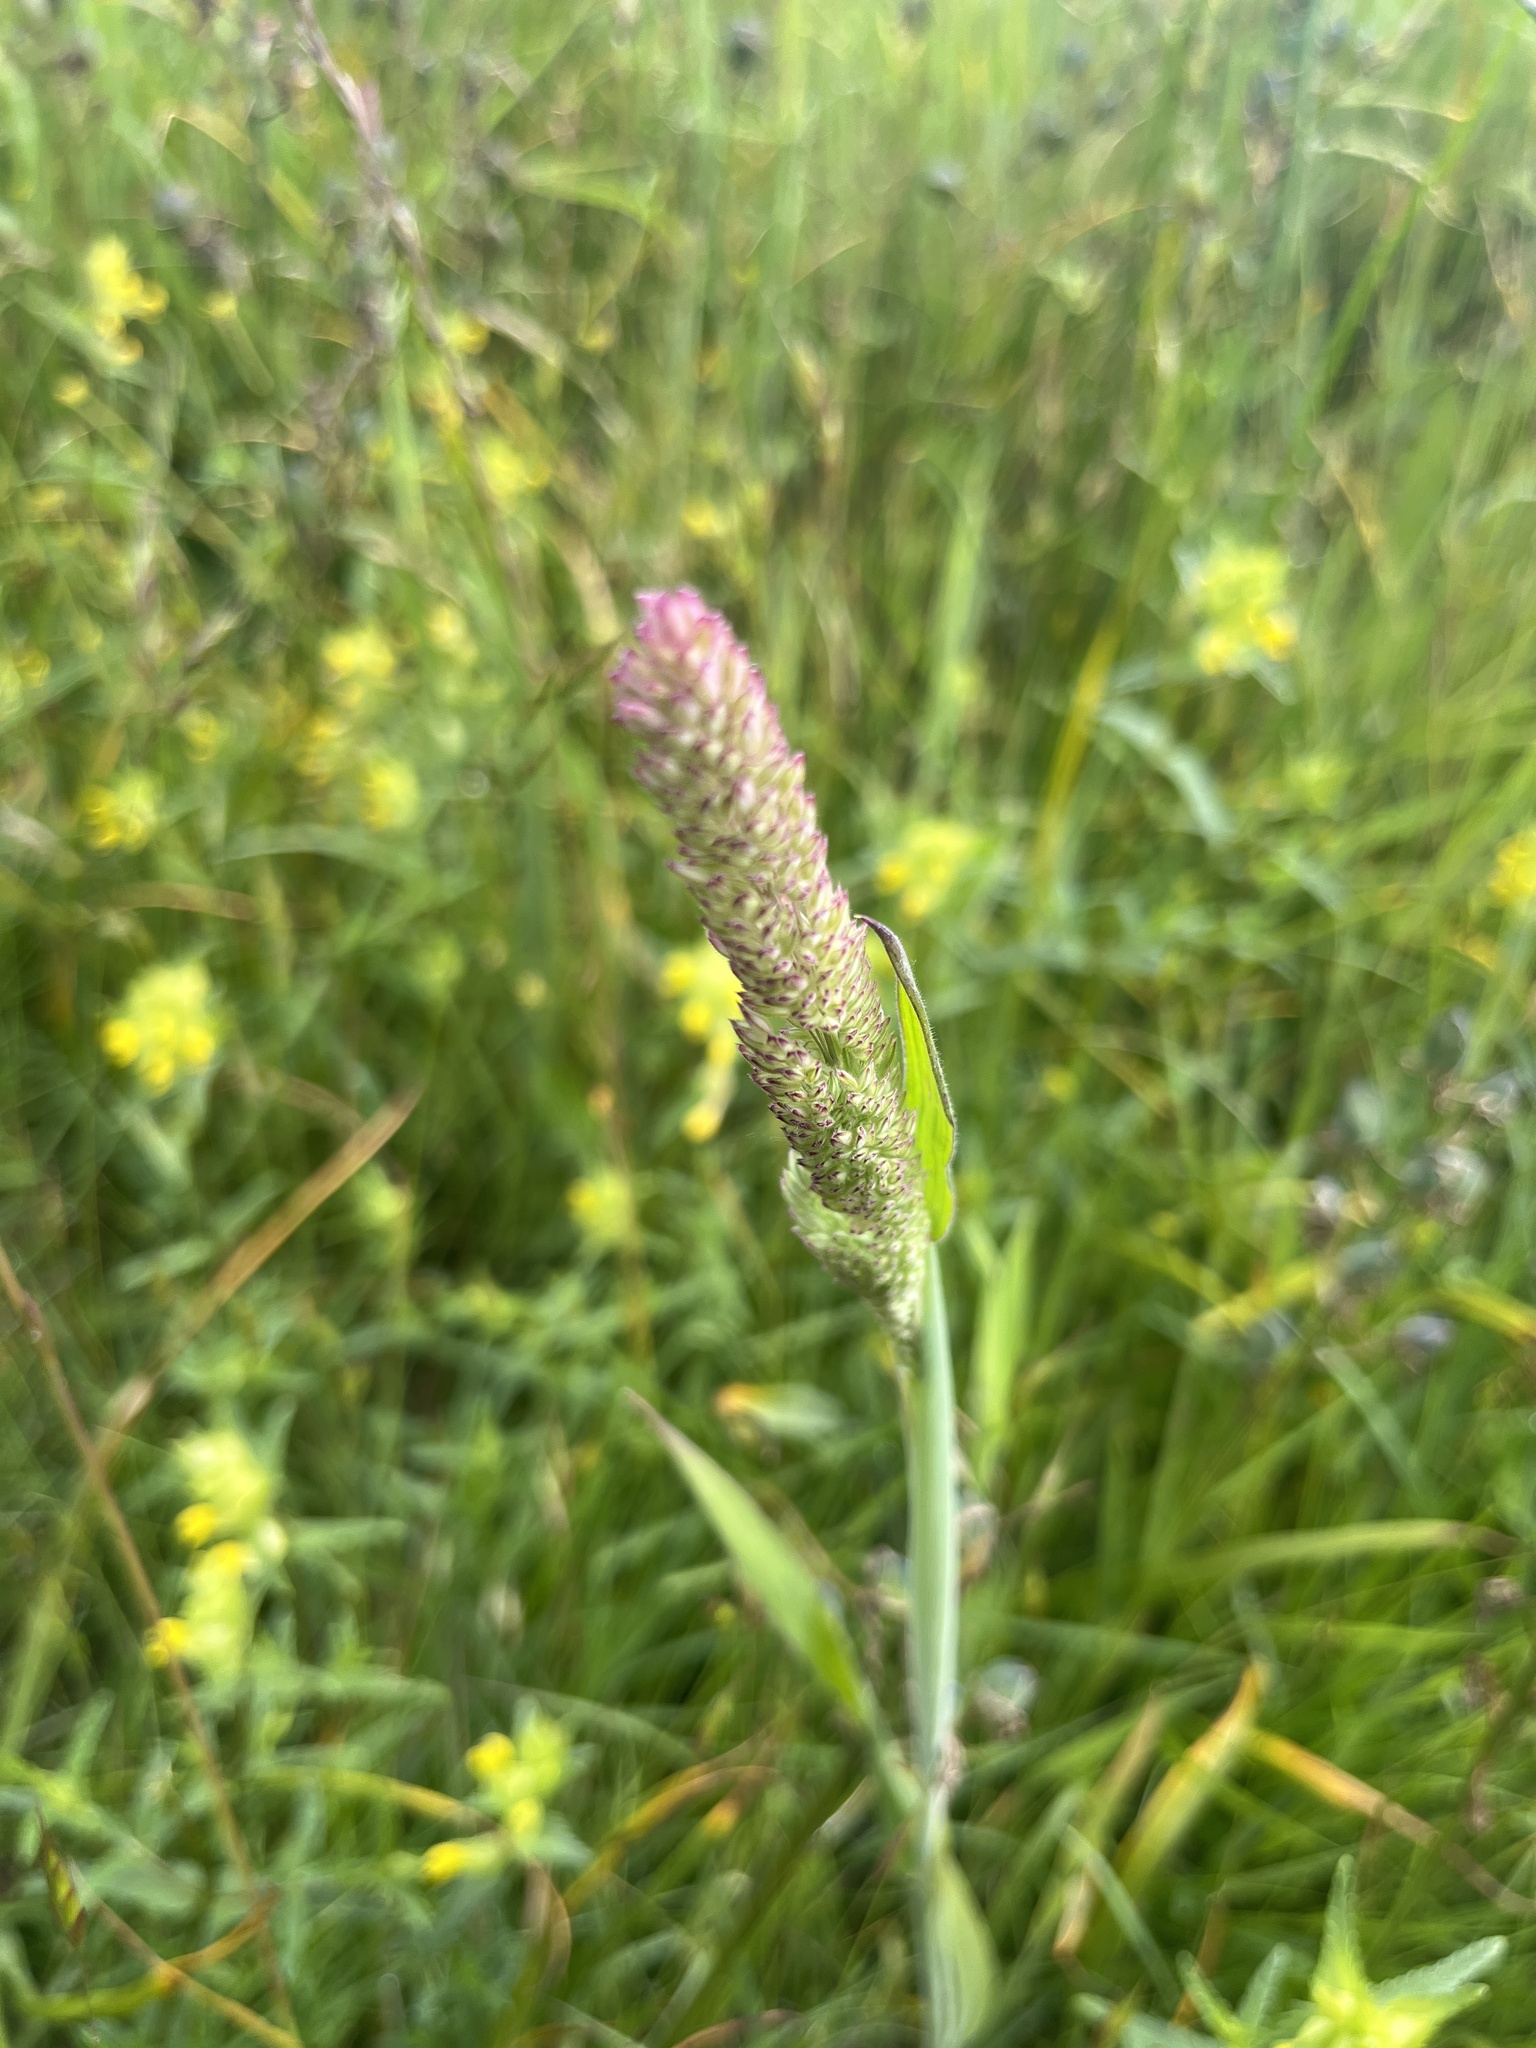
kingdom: Plantae
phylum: Tracheophyta
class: Liliopsida
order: Poales
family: Poaceae
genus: Holcus
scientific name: Holcus lanatus
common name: Yorkshire-fog
